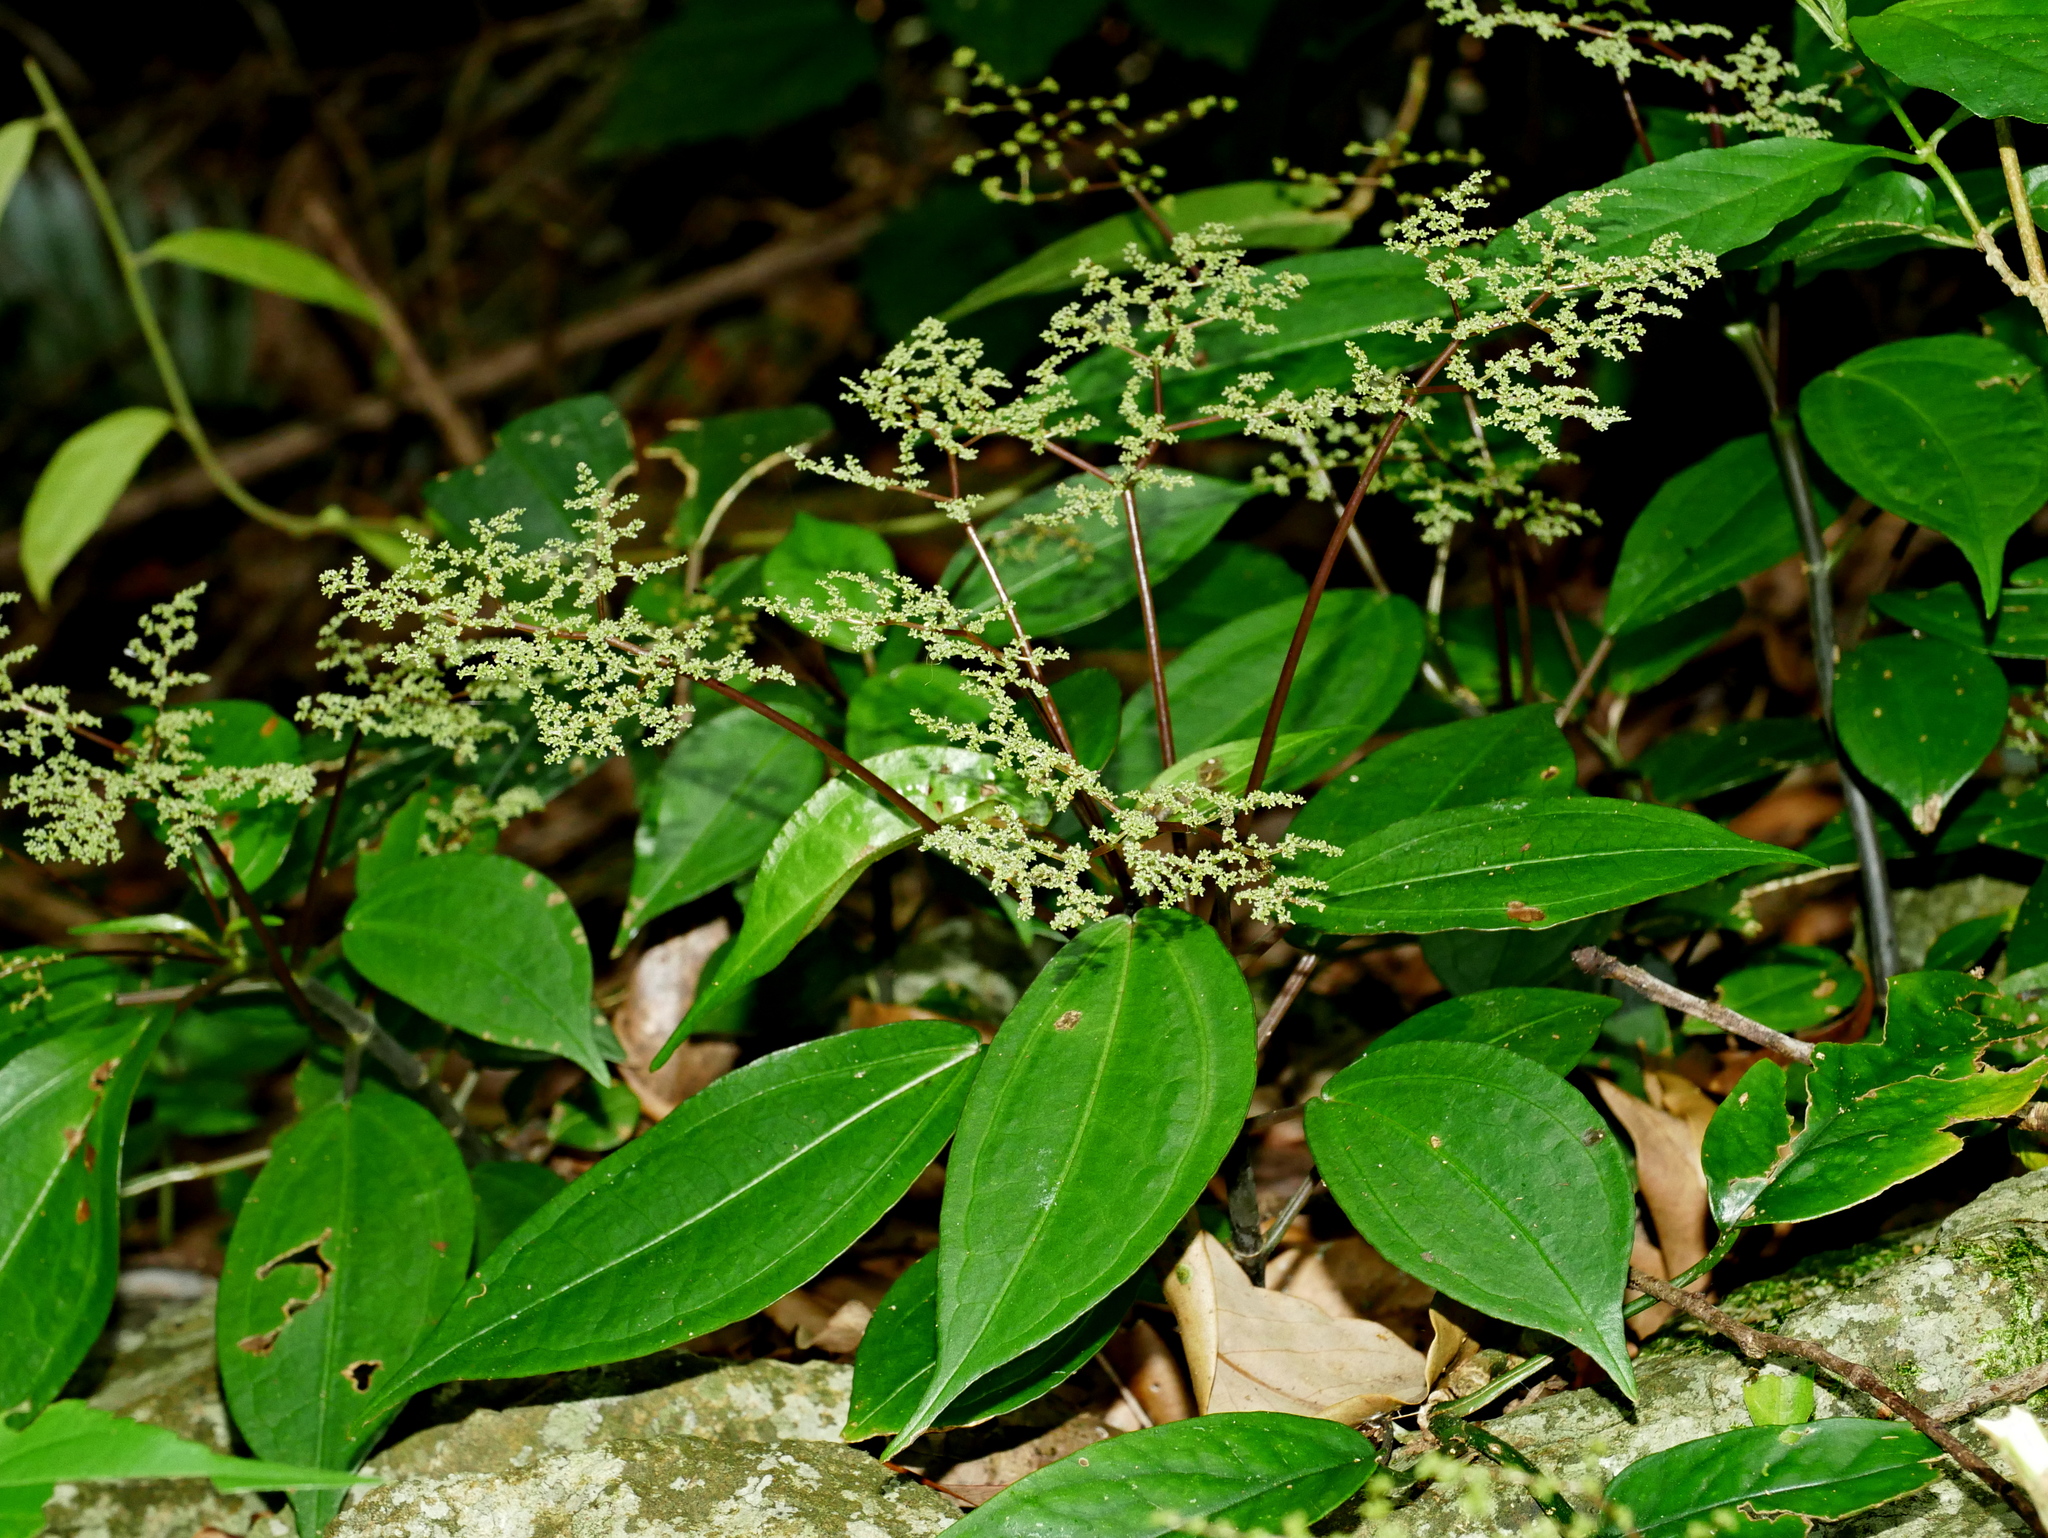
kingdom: Plantae
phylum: Tracheophyta
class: Magnoliopsida
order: Rosales
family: Urticaceae
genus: Pilea
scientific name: Pilea plataniflora
